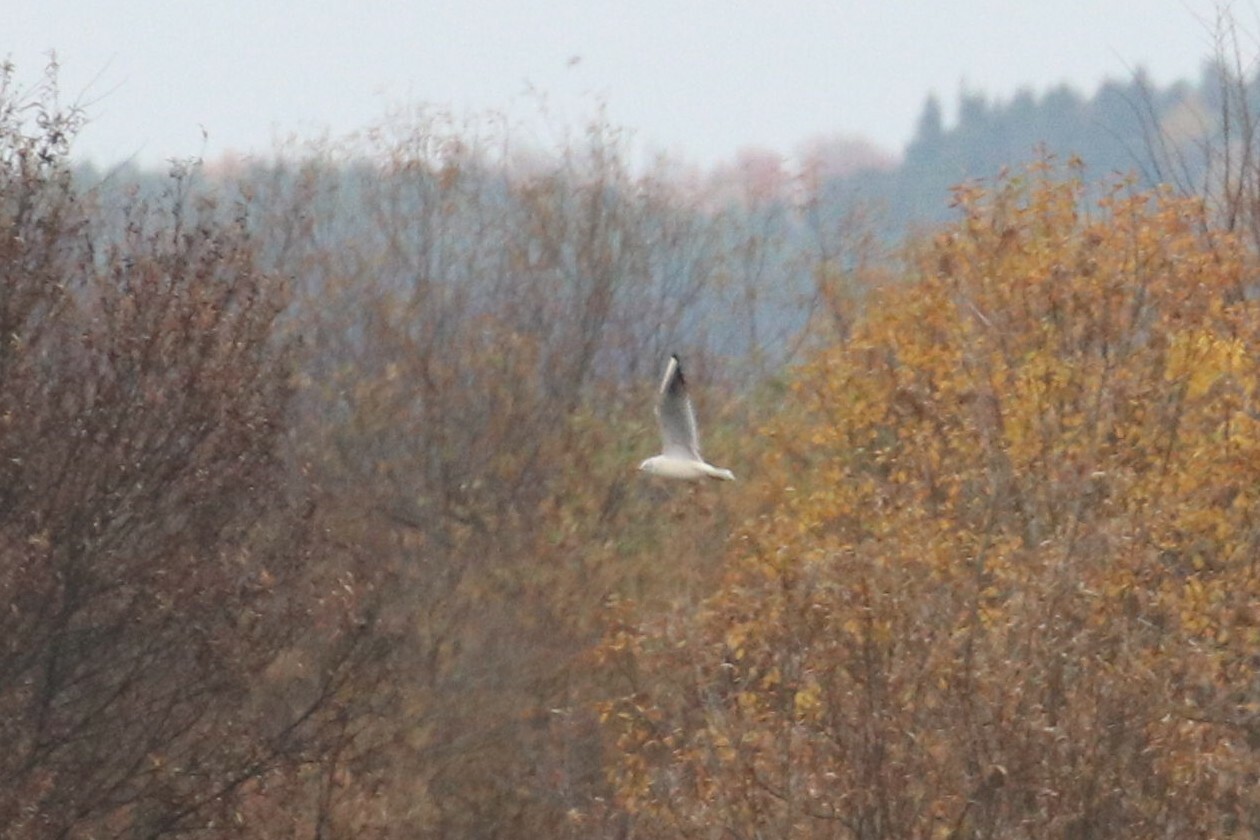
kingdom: Animalia
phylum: Chordata
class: Aves
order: Charadriiformes
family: Laridae
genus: Chroicocephalus
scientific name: Chroicocephalus ridibundus
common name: Black-headed gull
